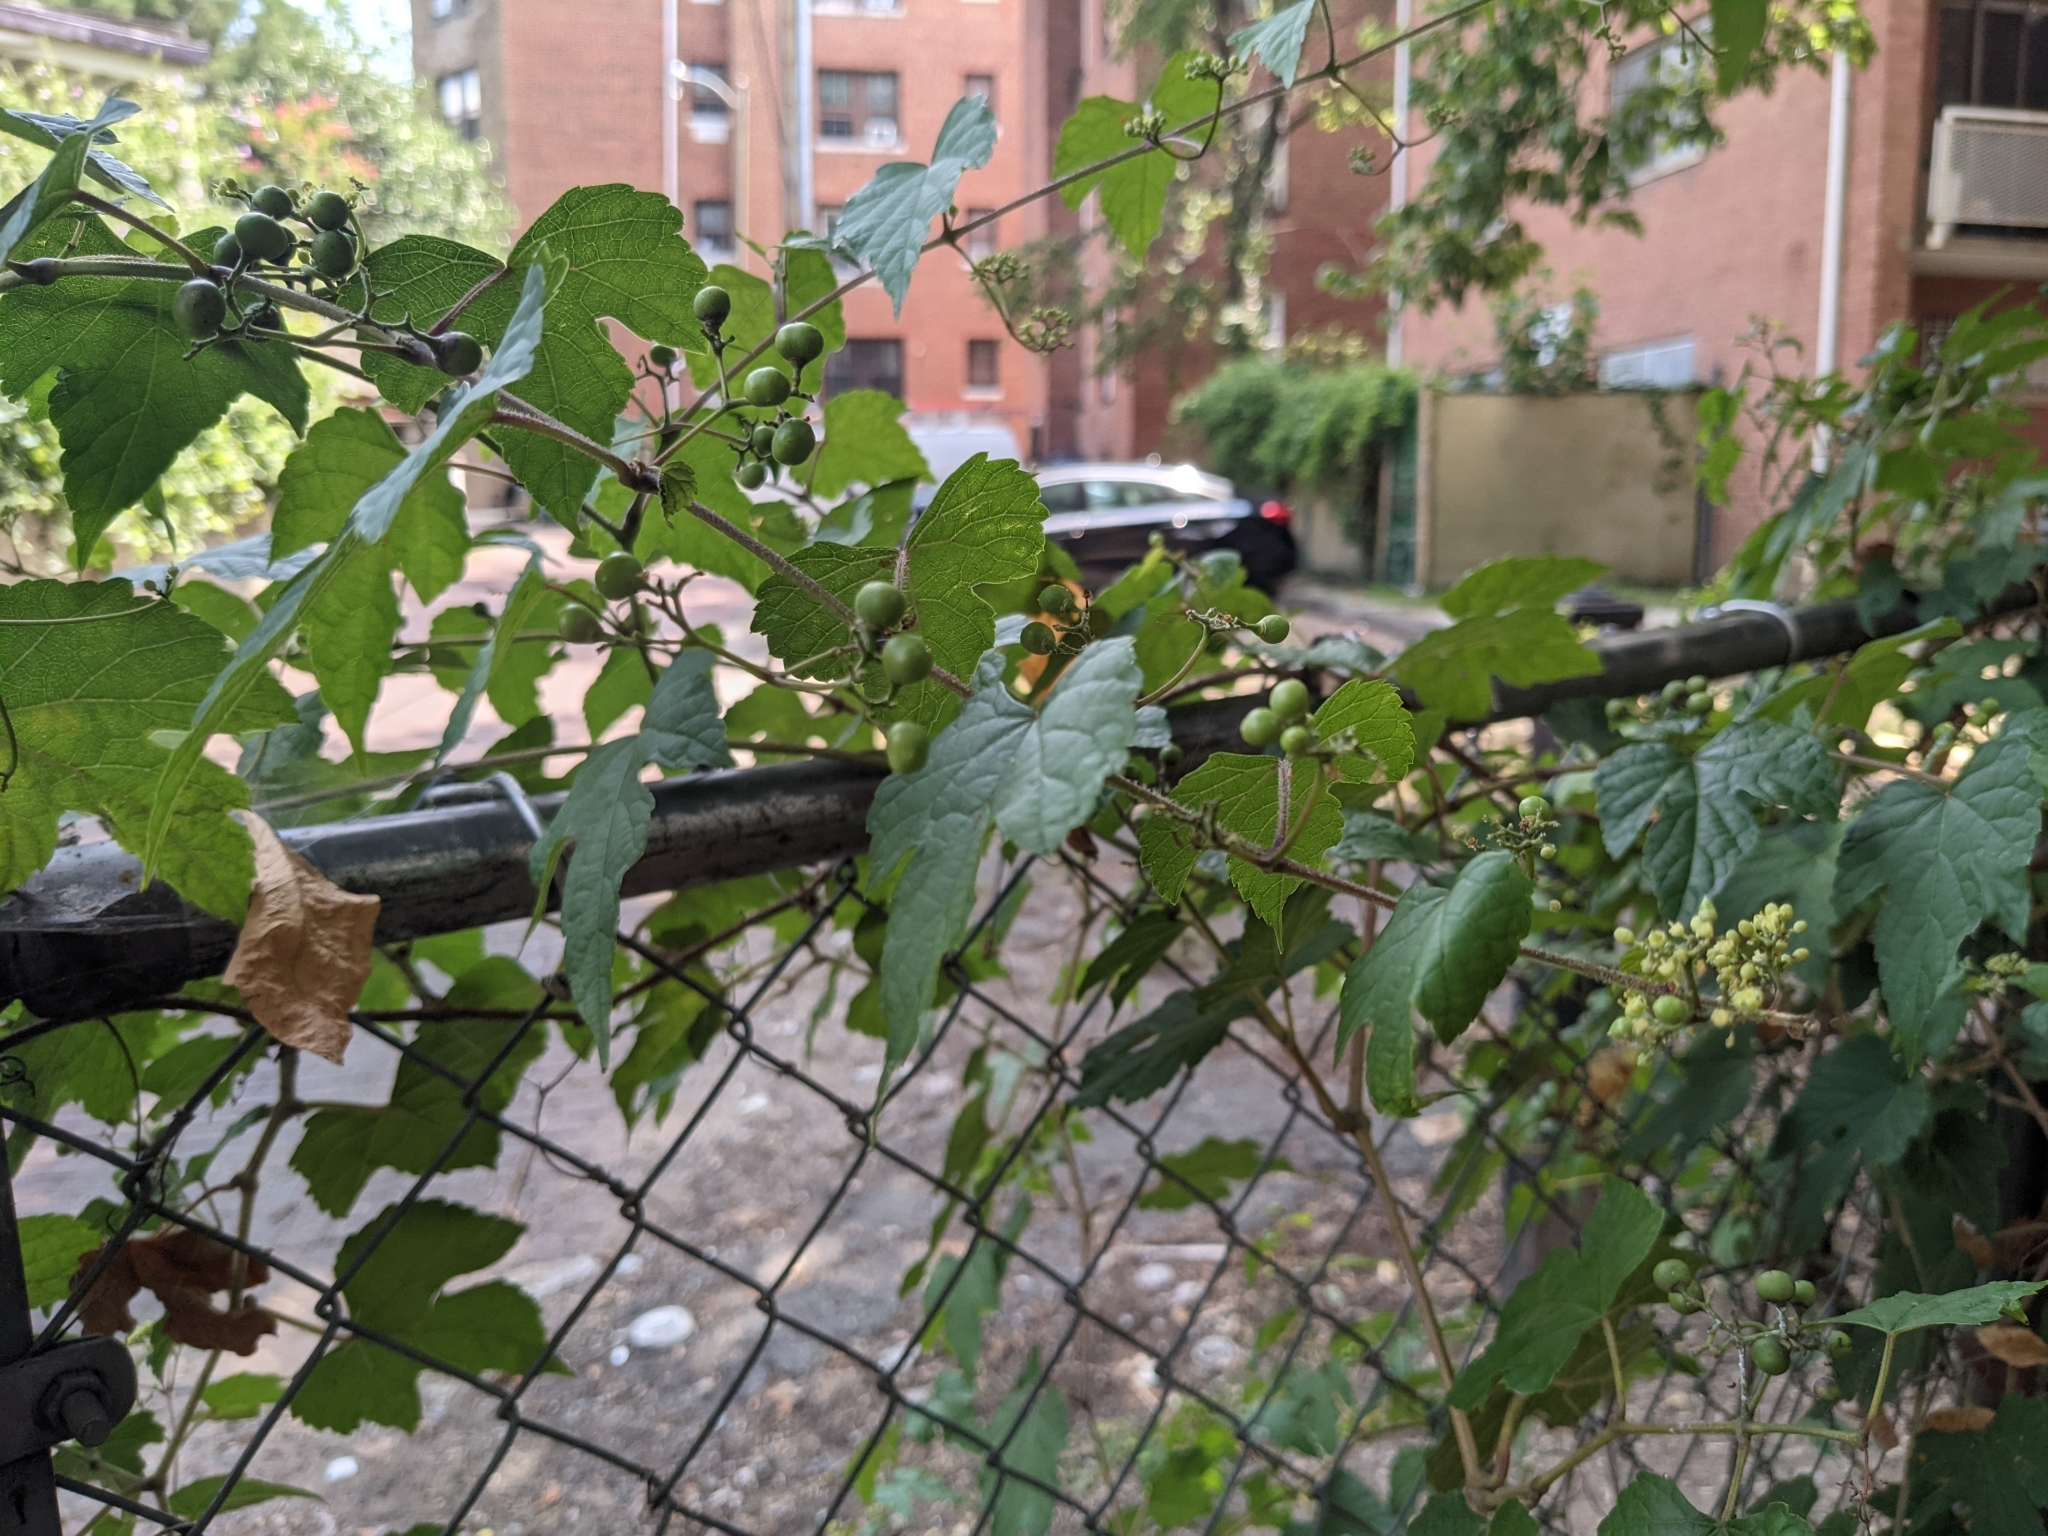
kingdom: Plantae
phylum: Tracheophyta
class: Magnoliopsida
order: Vitales
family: Vitaceae
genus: Ampelopsis
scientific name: Ampelopsis glandulosa
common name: Amur peppervine
